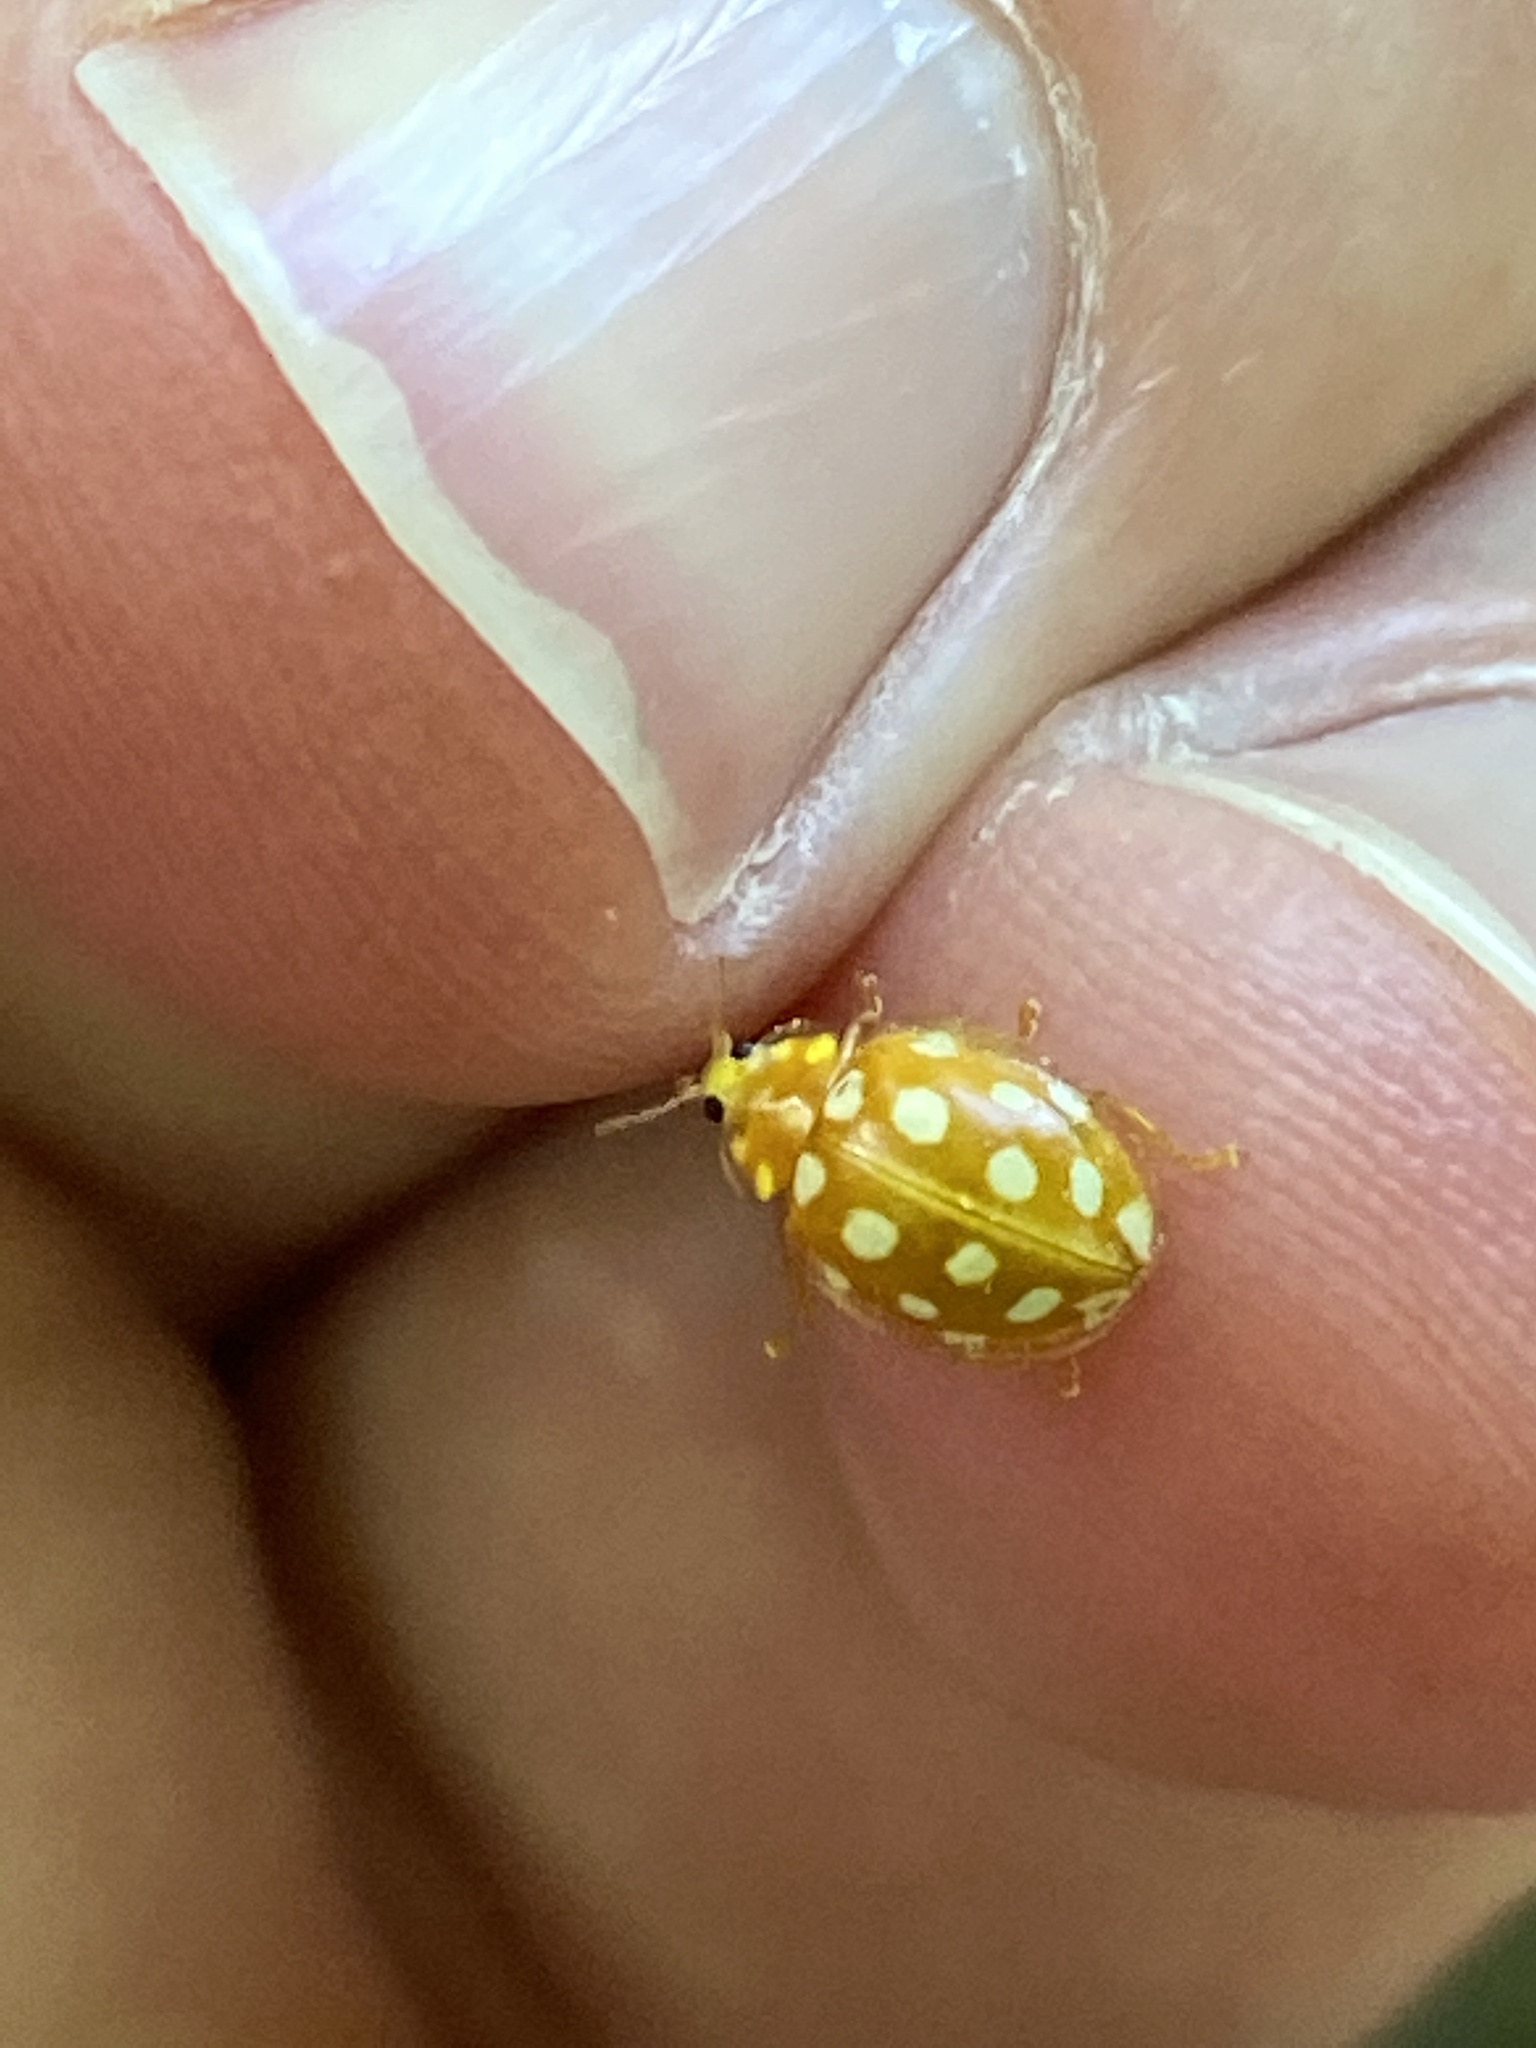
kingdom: Animalia
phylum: Arthropoda
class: Insecta
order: Coleoptera
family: Coccinellidae
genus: Halyzia
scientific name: Halyzia sedecimguttata
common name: Orange ladybird
